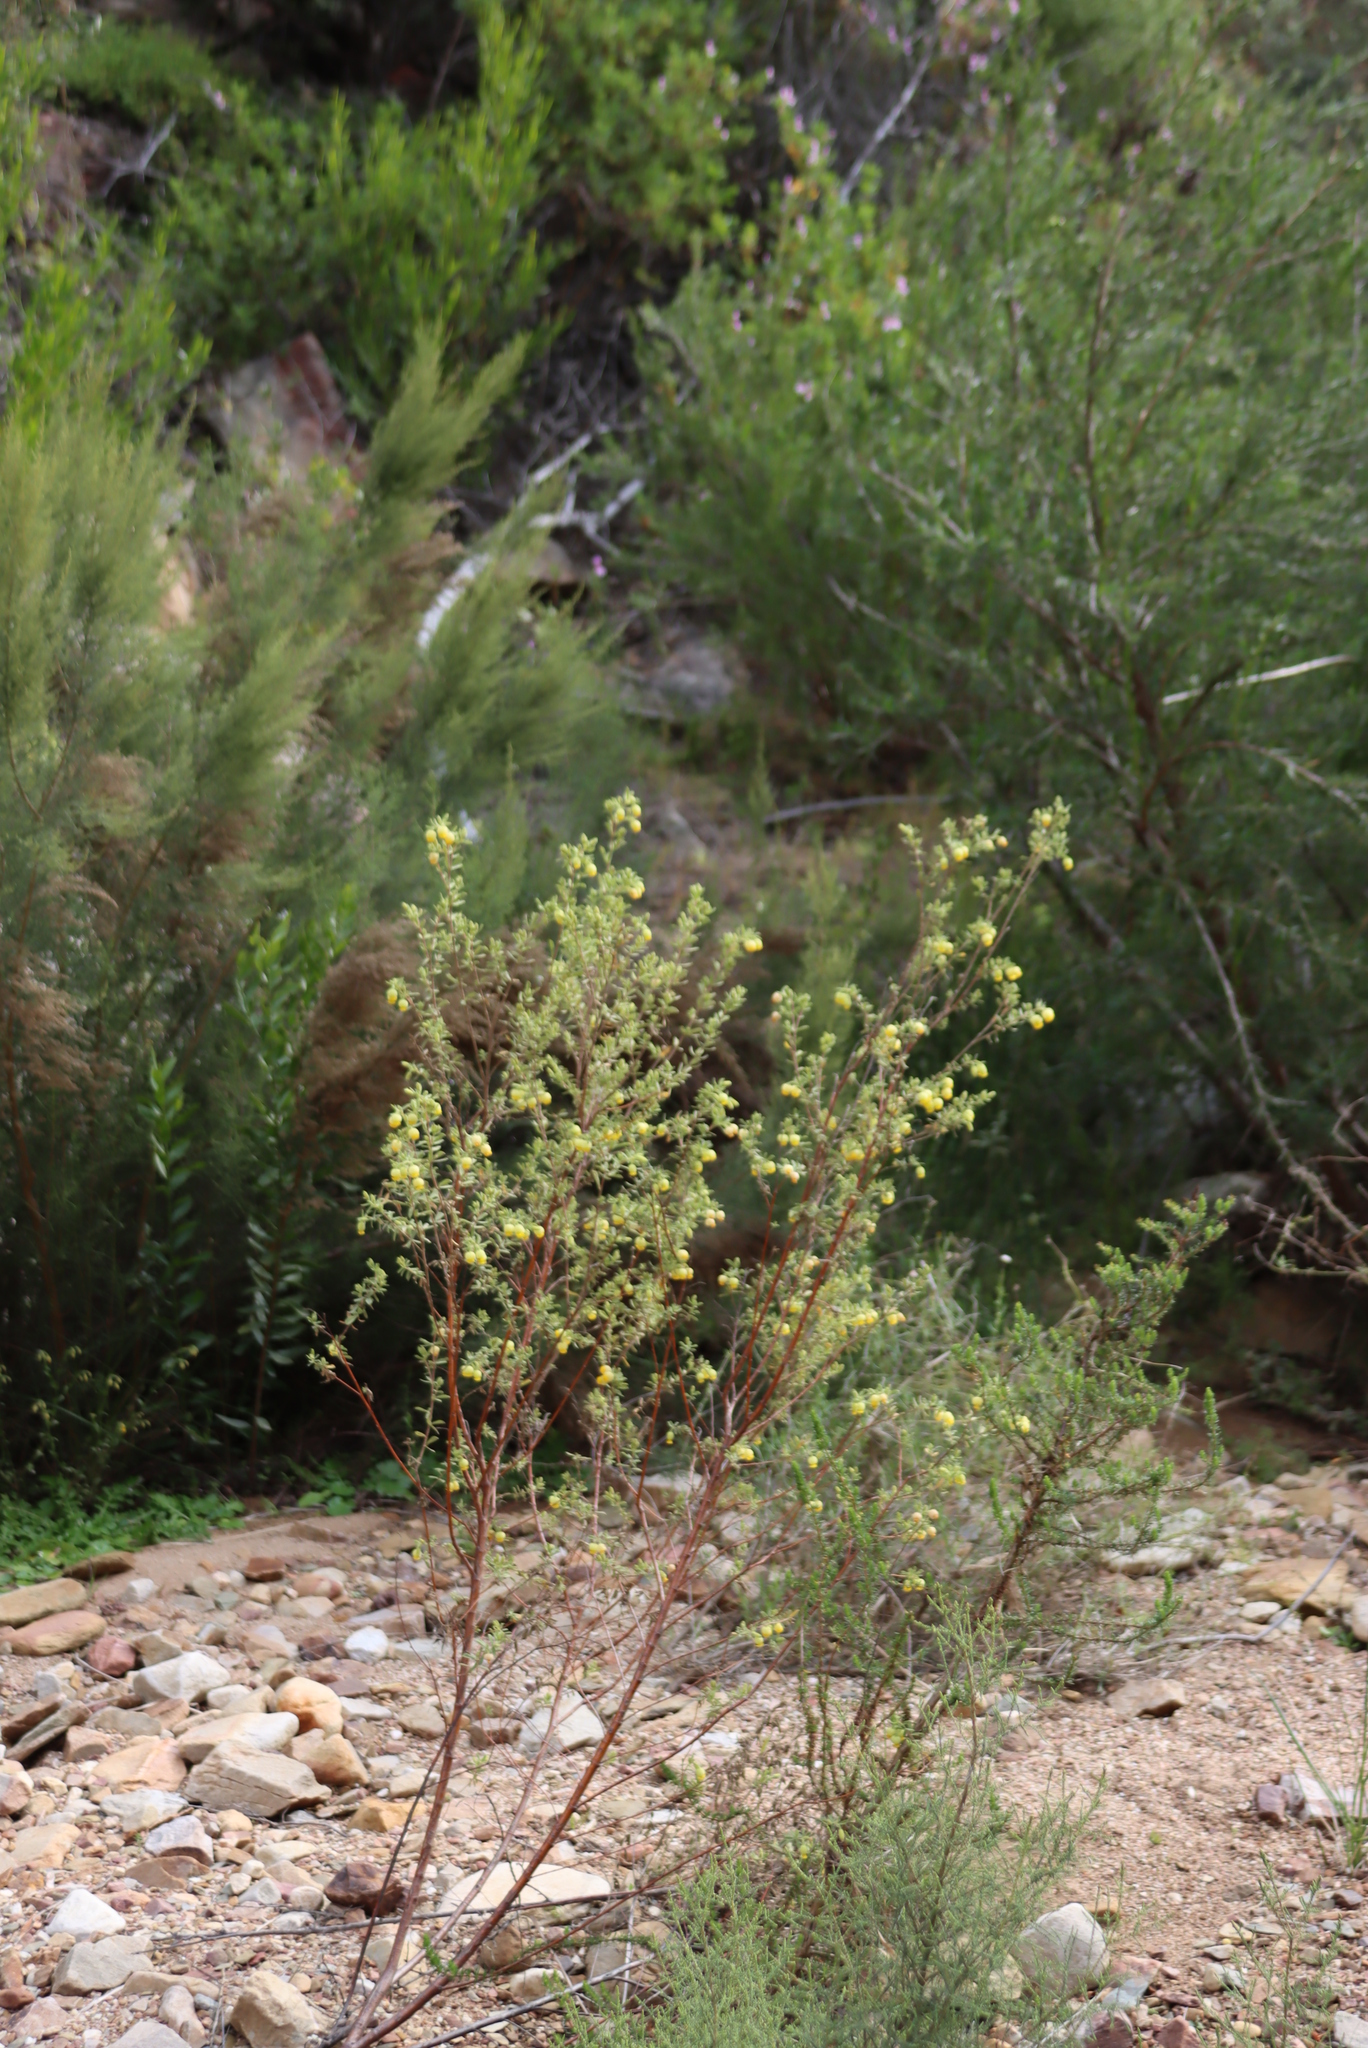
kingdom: Plantae
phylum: Tracheophyta
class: Magnoliopsida
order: Malvales
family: Malvaceae
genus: Hermannia
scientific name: Hermannia mucronulata
